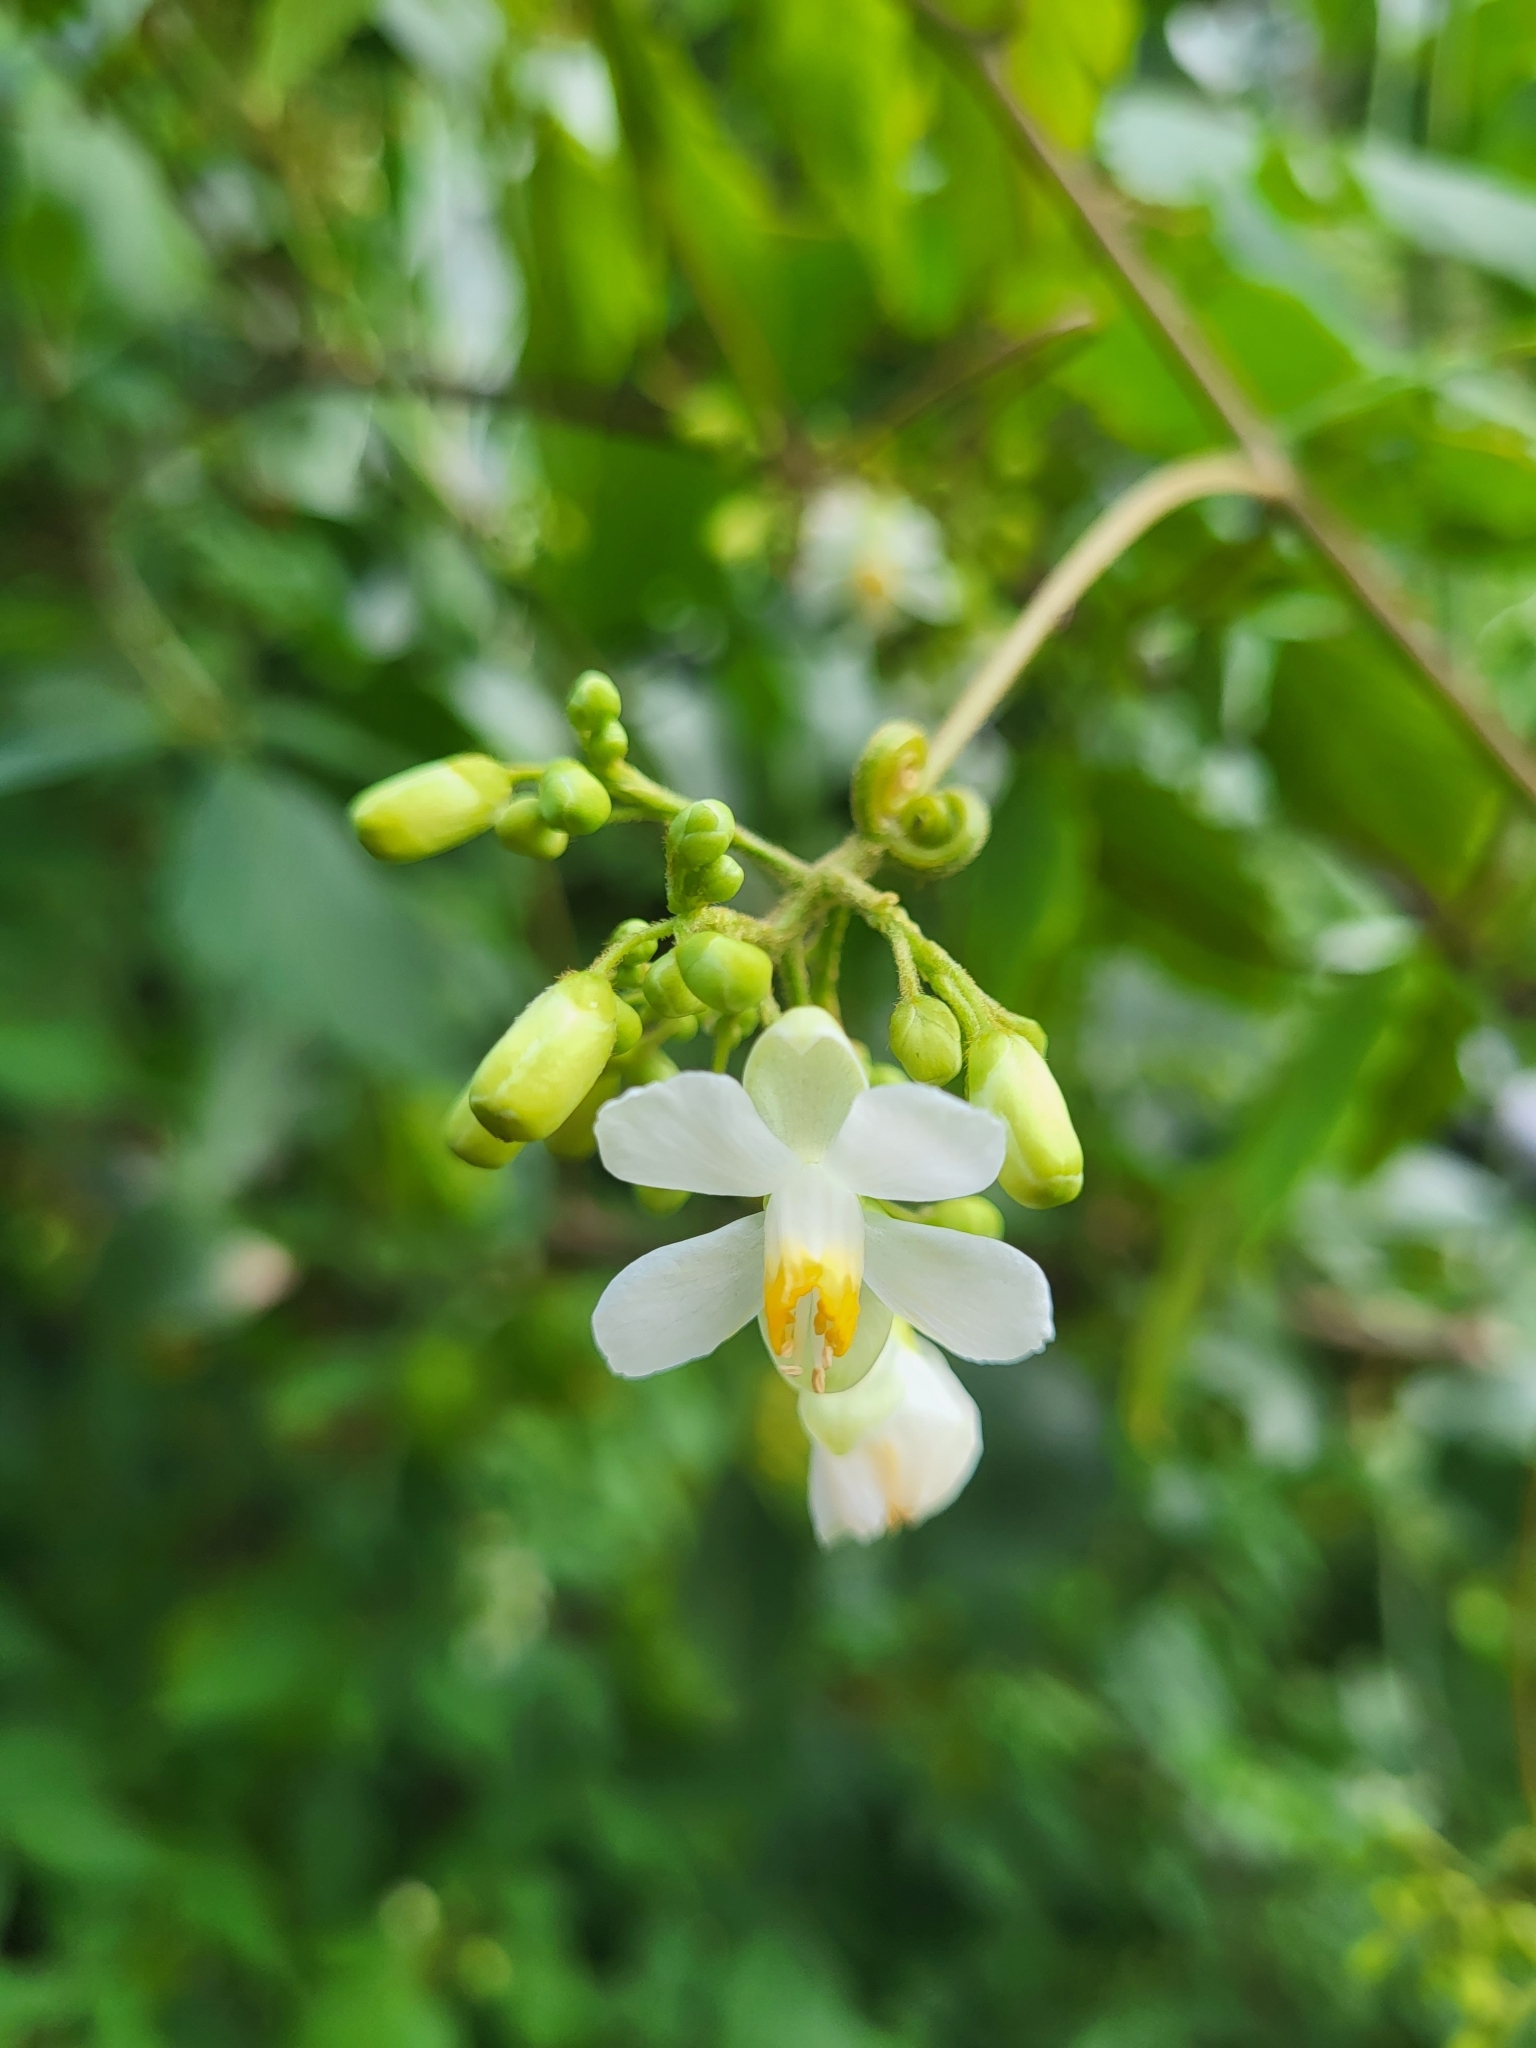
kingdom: Plantae
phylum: Tracheophyta
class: Magnoliopsida
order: Sapindales
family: Sapindaceae
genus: Cardiospermum
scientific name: Cardiospermum grandiflorum
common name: Balloon vine
